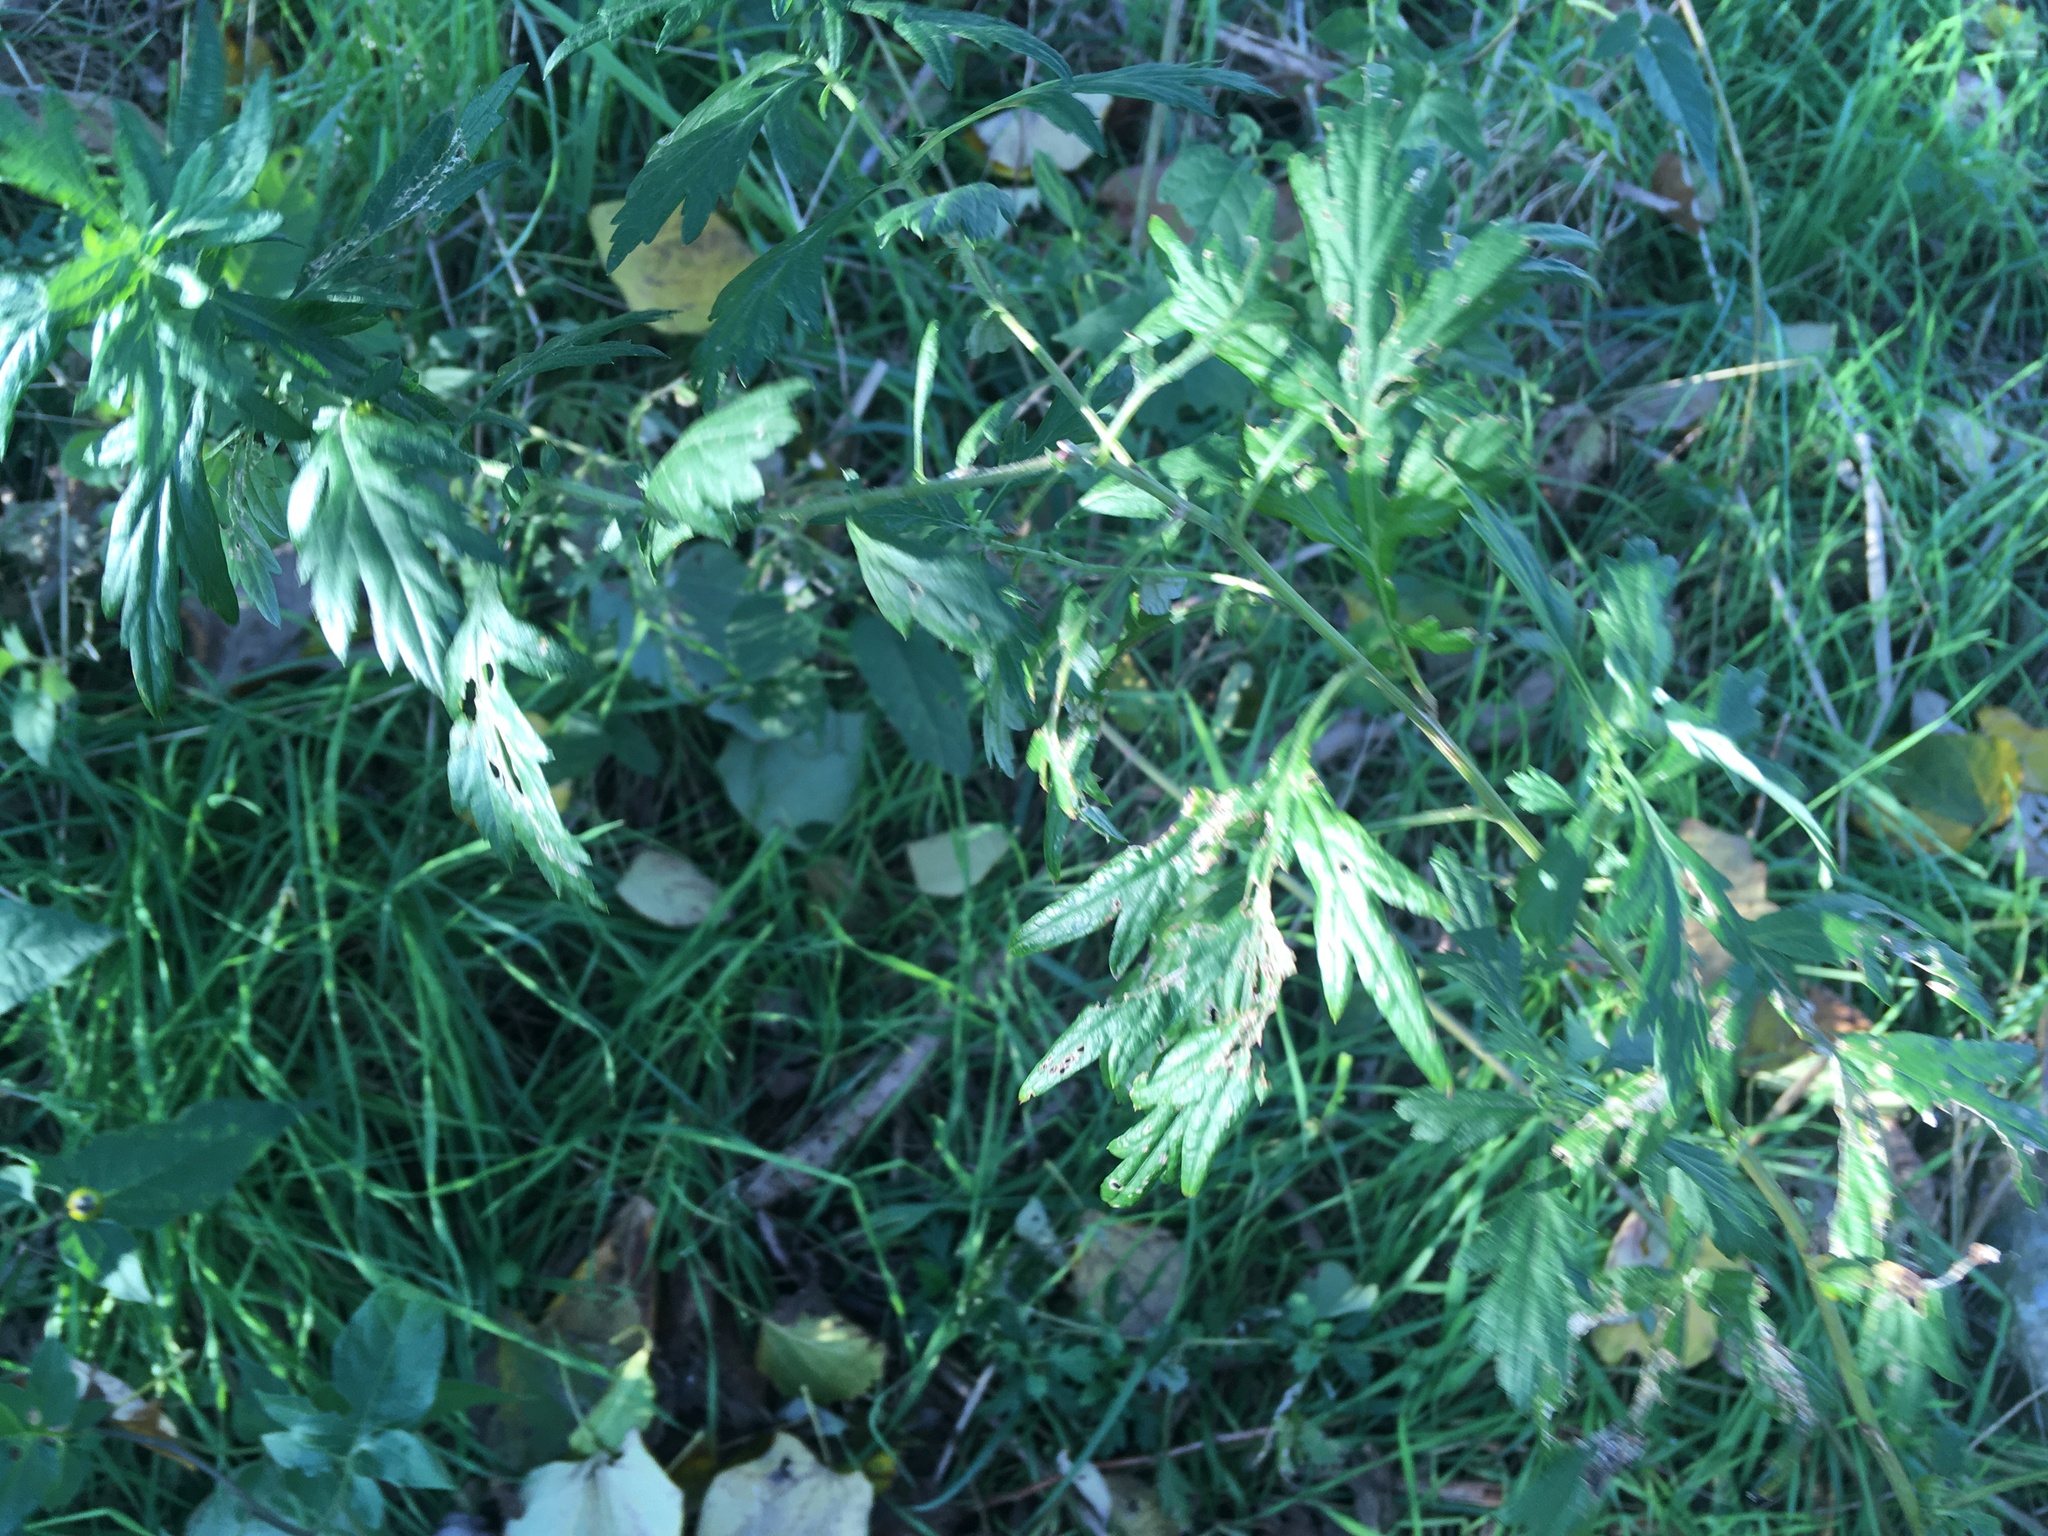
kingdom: Plantae
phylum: Tracheophyta
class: Magnoliopsida
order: Asterales
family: Asteraceae
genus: Artemisia
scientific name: Artemisia vulgaris
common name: Mugwort
